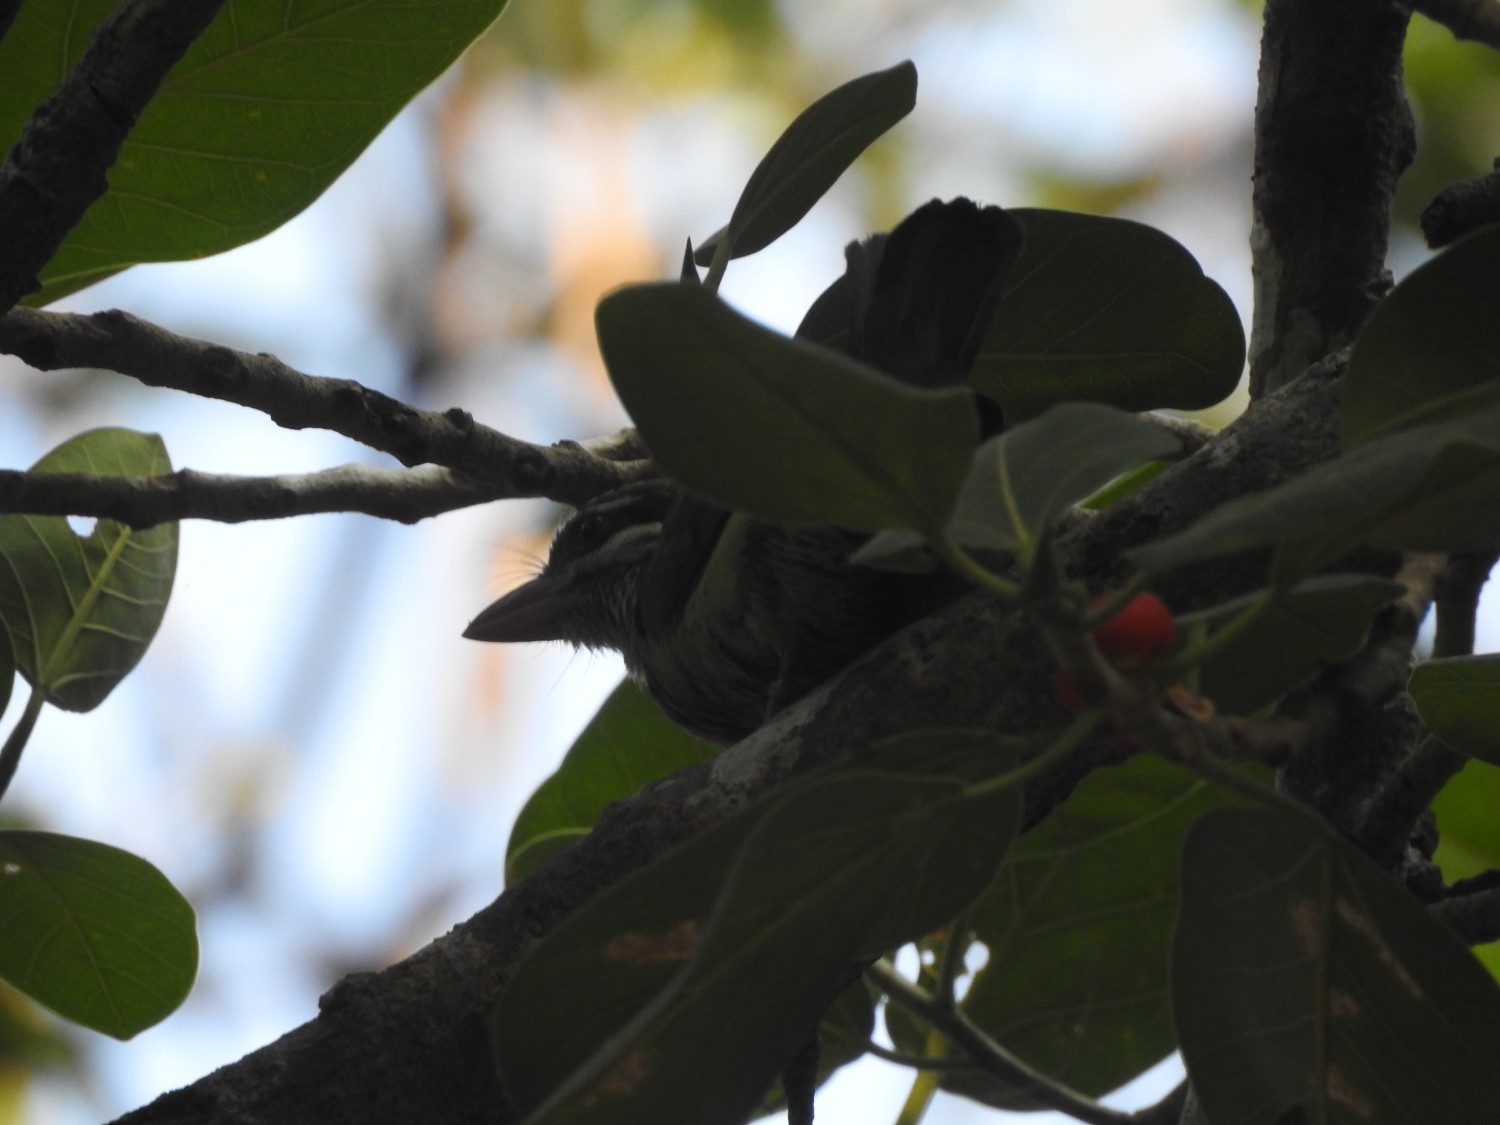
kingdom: Animalia
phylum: Chordata
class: Aves
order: Piciformes
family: Megalaimidae
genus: Psilopogon
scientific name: Psilopogon viridis
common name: White-cheeked barbet
